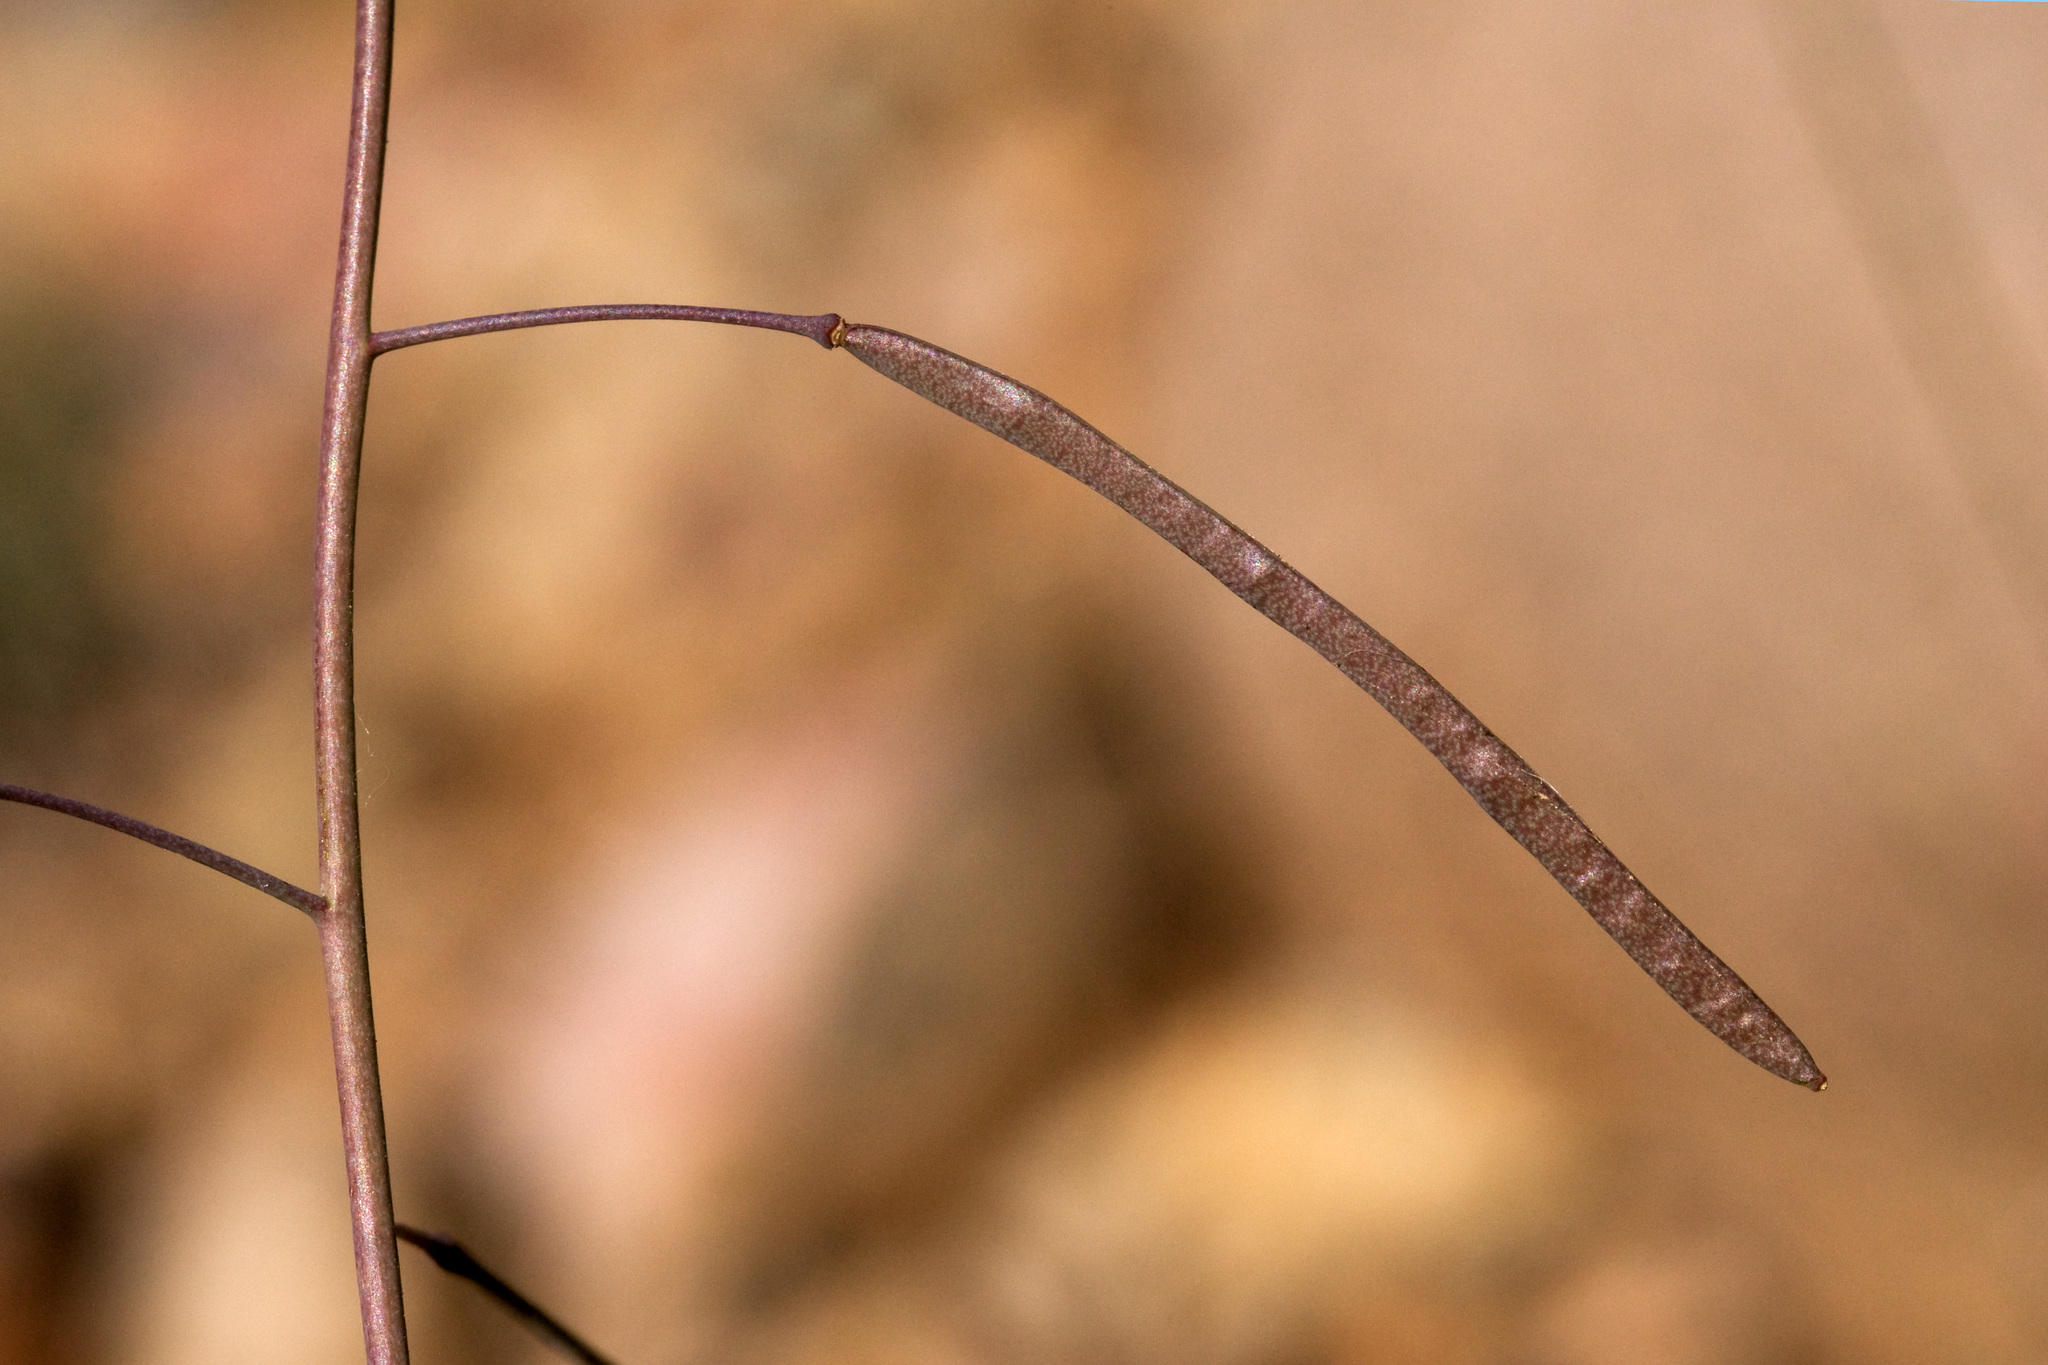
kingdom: Plantae
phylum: Tracheophyta
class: Magnoliopsida
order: Brassicales
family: Brassicaceae
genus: Boechera
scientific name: Boechera quadrangulensis
